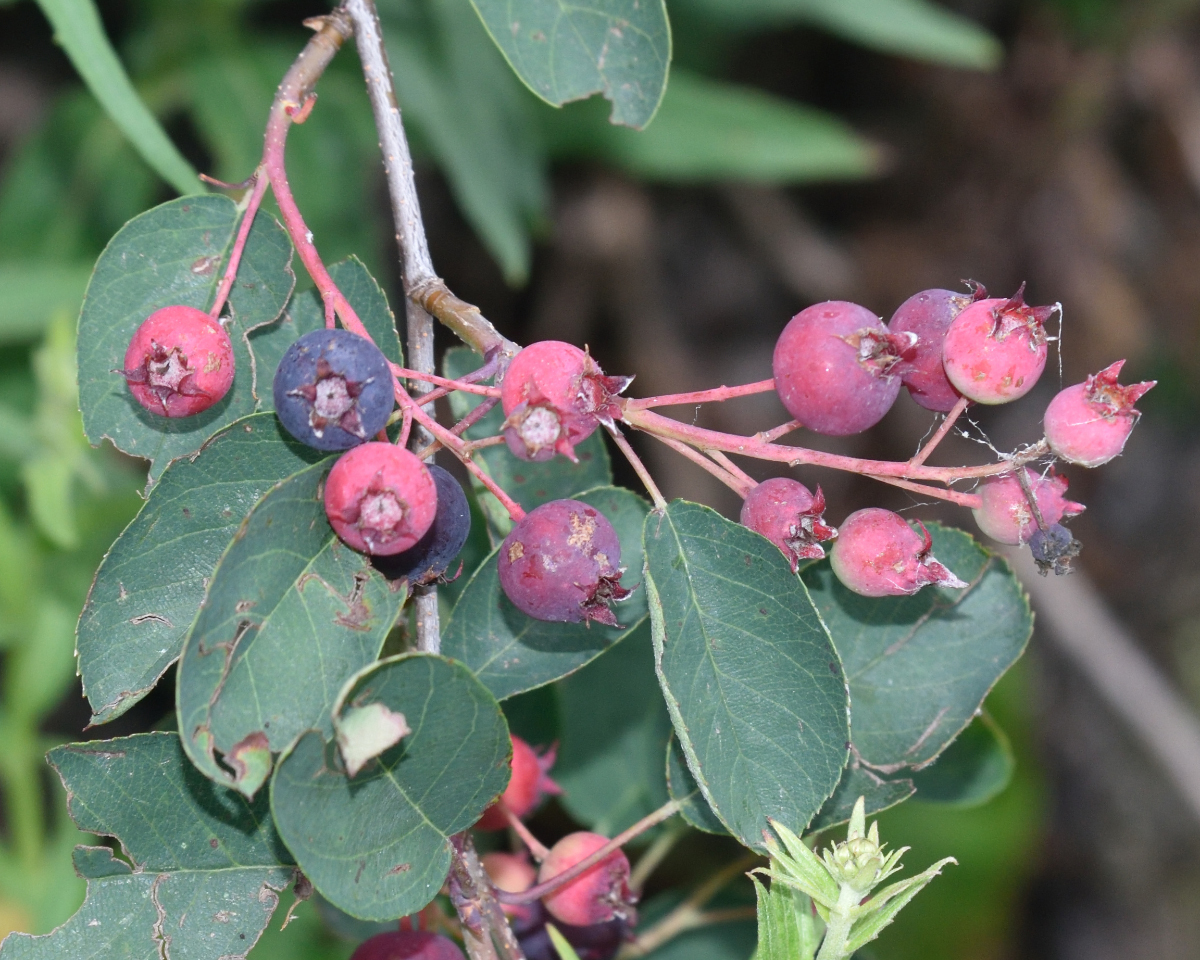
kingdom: Plantae
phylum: Tracheophyta
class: Magnoliopsida
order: Rosales
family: Rosaceae
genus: Amelanchier
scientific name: Amelanchier
